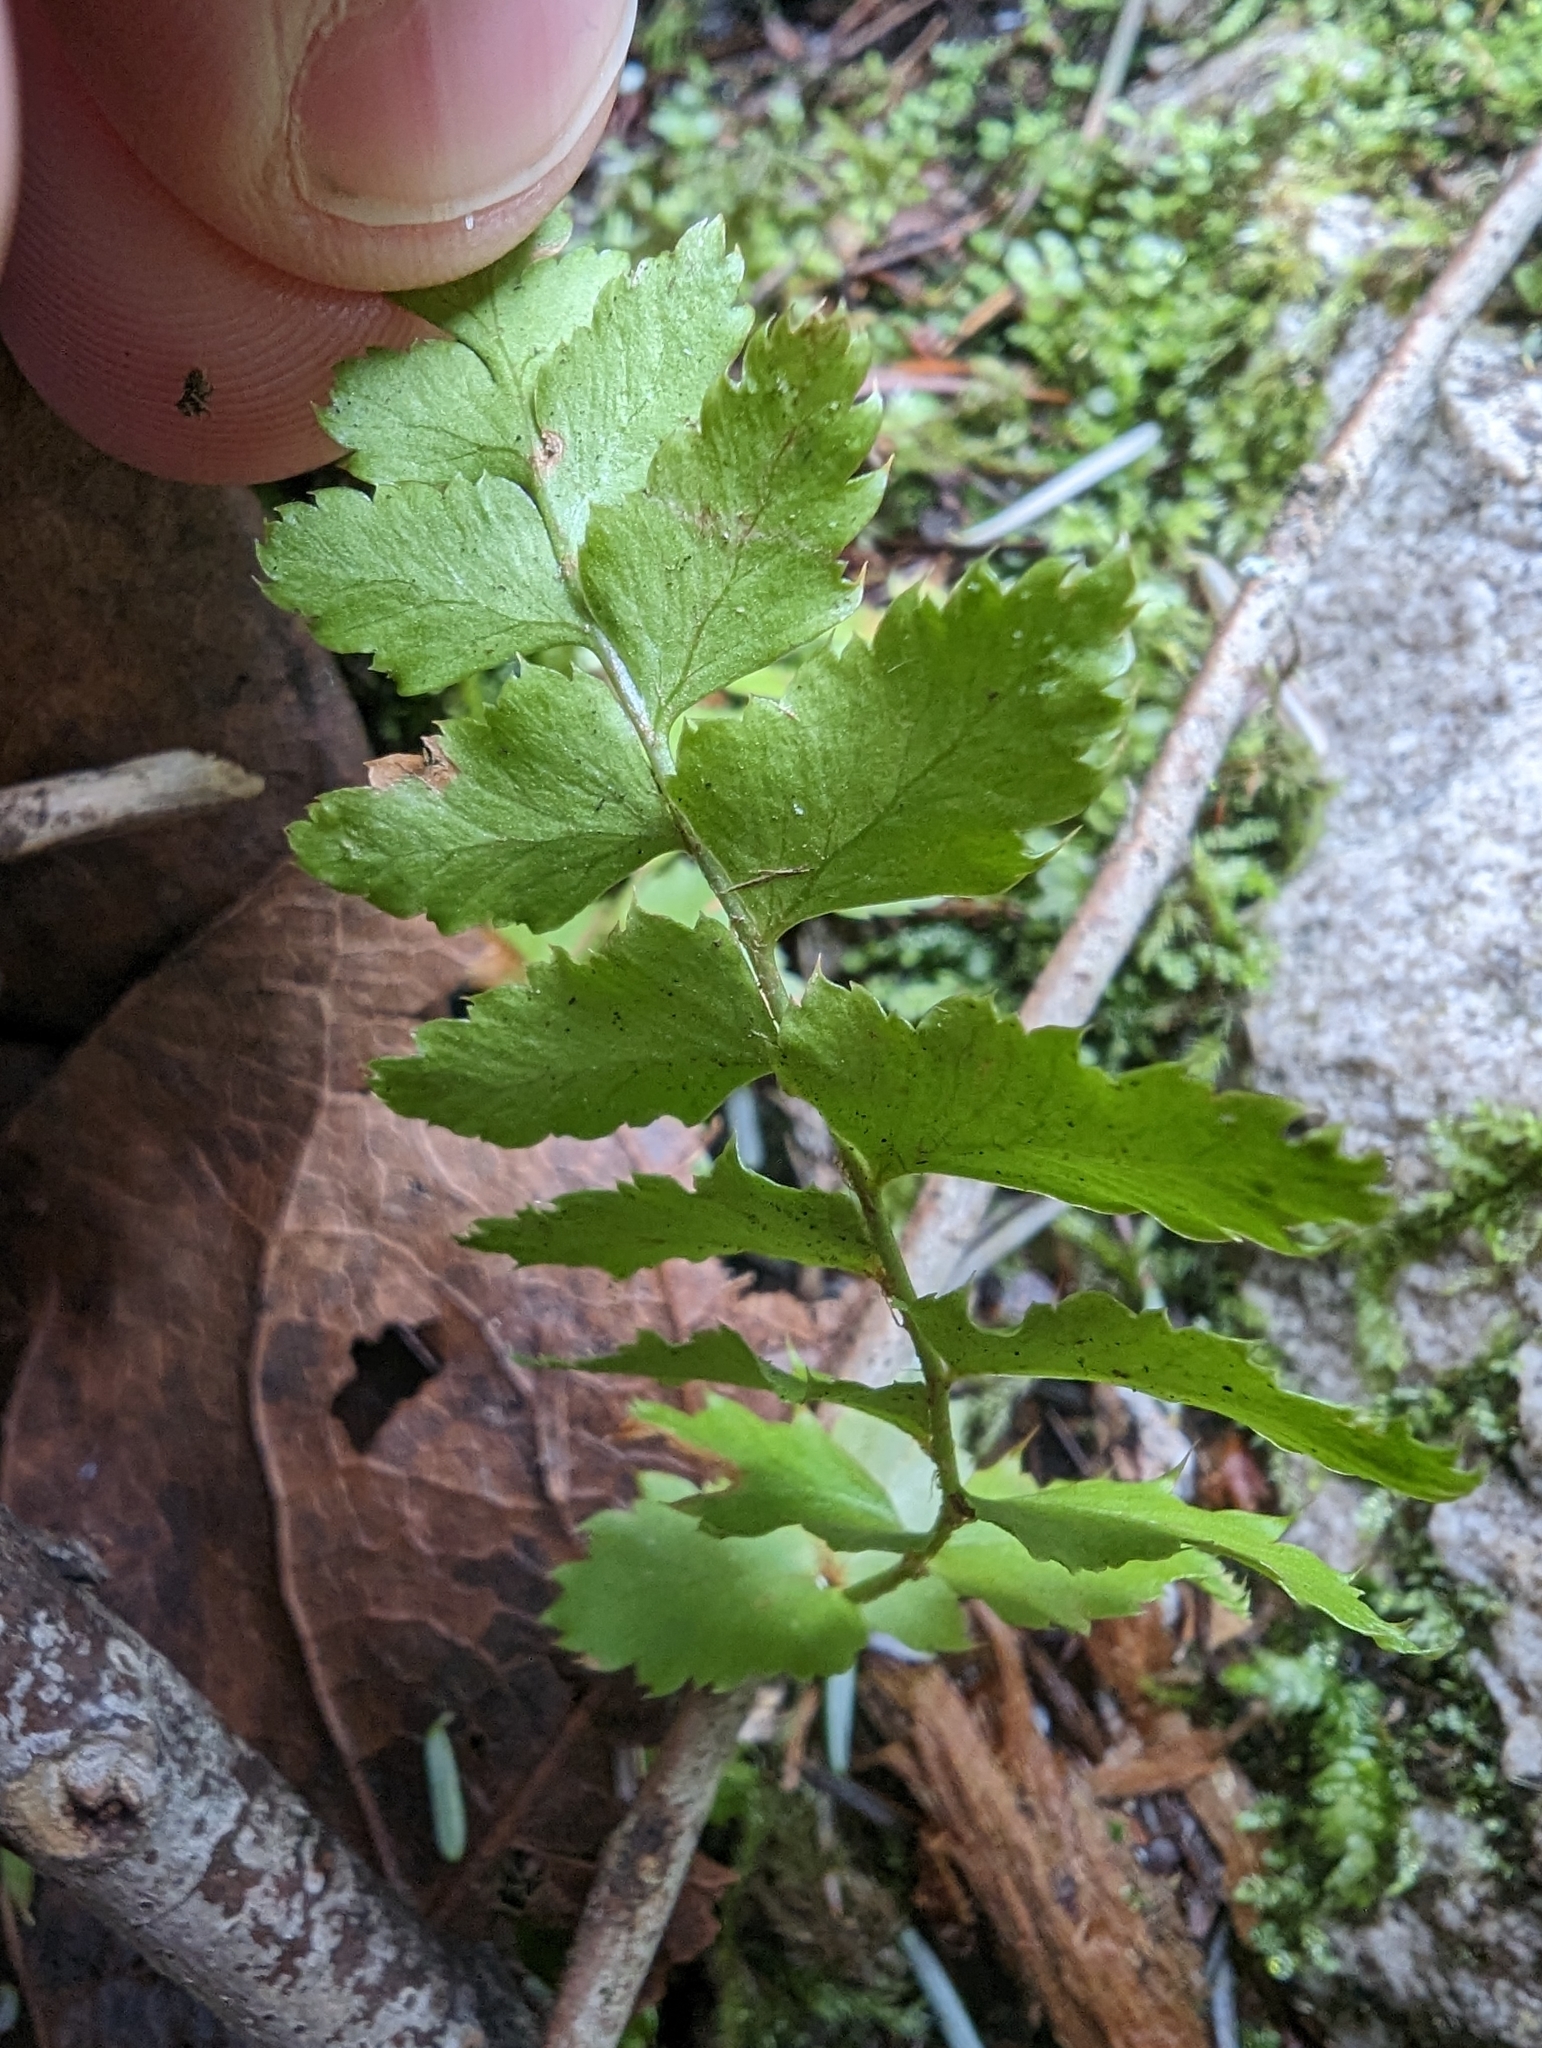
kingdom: Plantae
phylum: Tracheophyta
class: Polypodiopsida
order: Polypodiales
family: Dryopteridaceae
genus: Polystichum
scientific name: Polystichum munitum
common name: Western sword-fern
